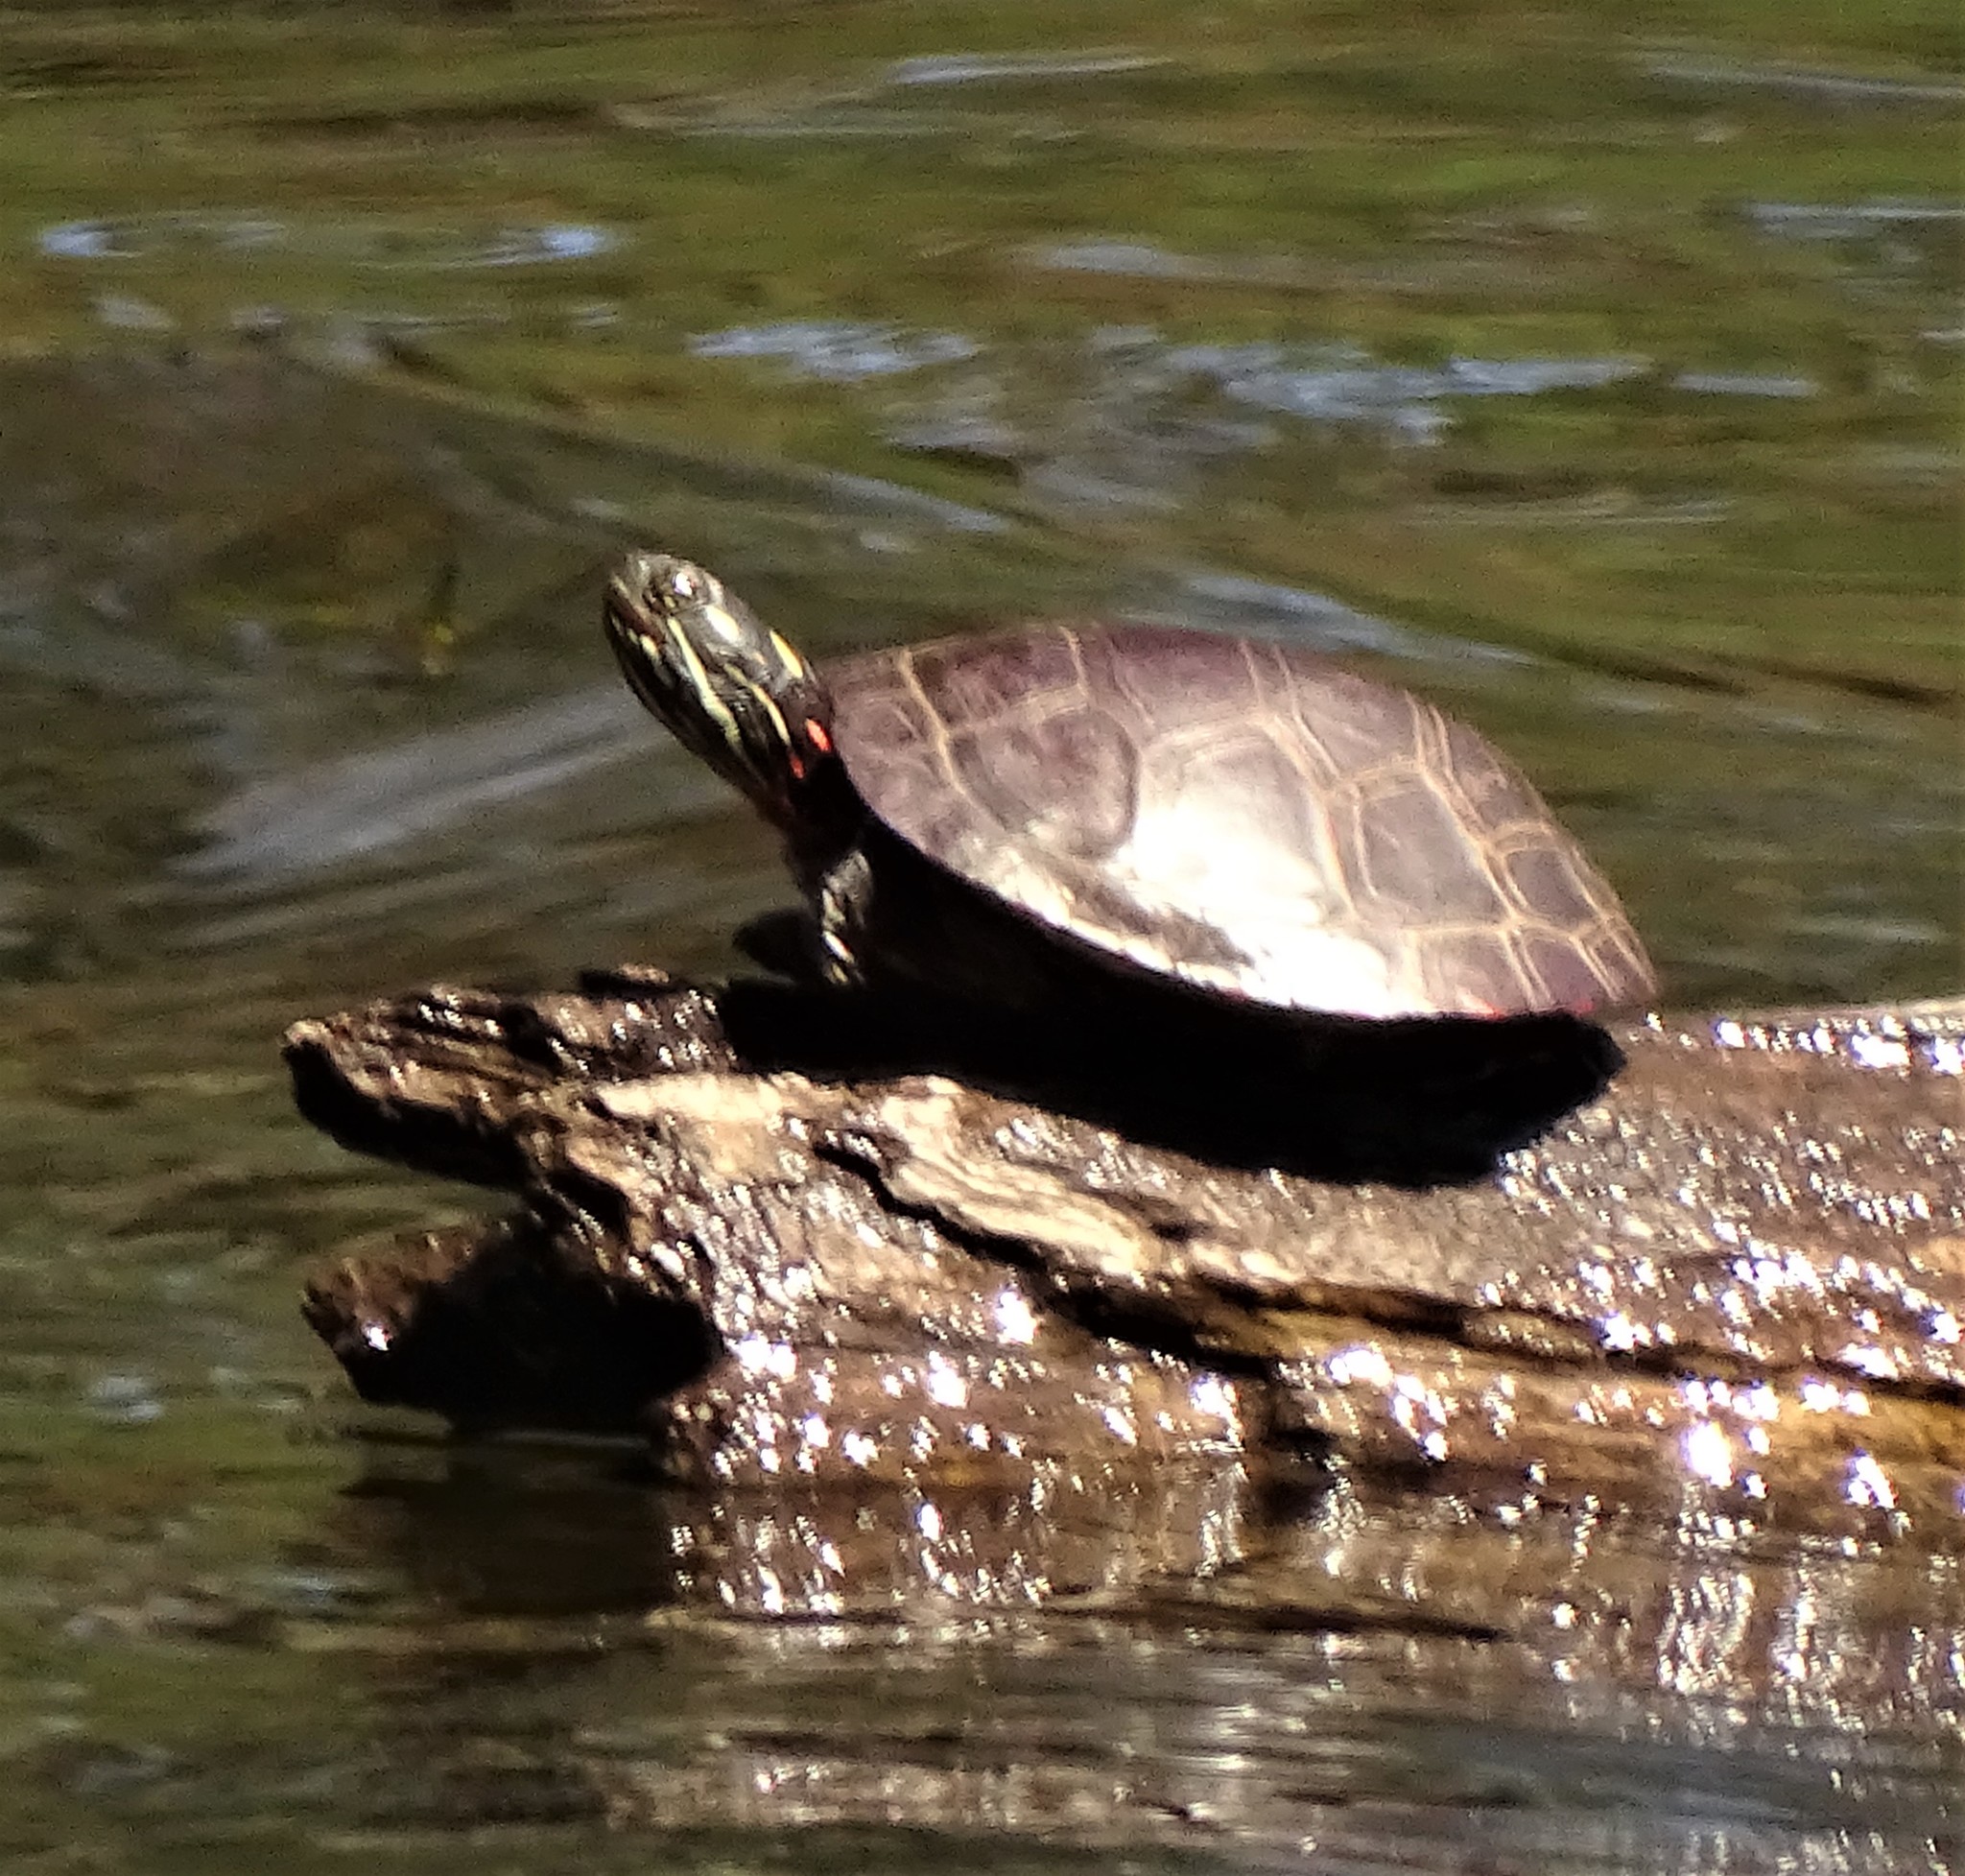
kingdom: Animalia
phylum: Chordata
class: Testudines
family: Emydidae
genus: Chrysemys
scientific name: Chrysemys picta
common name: Painted turtle
